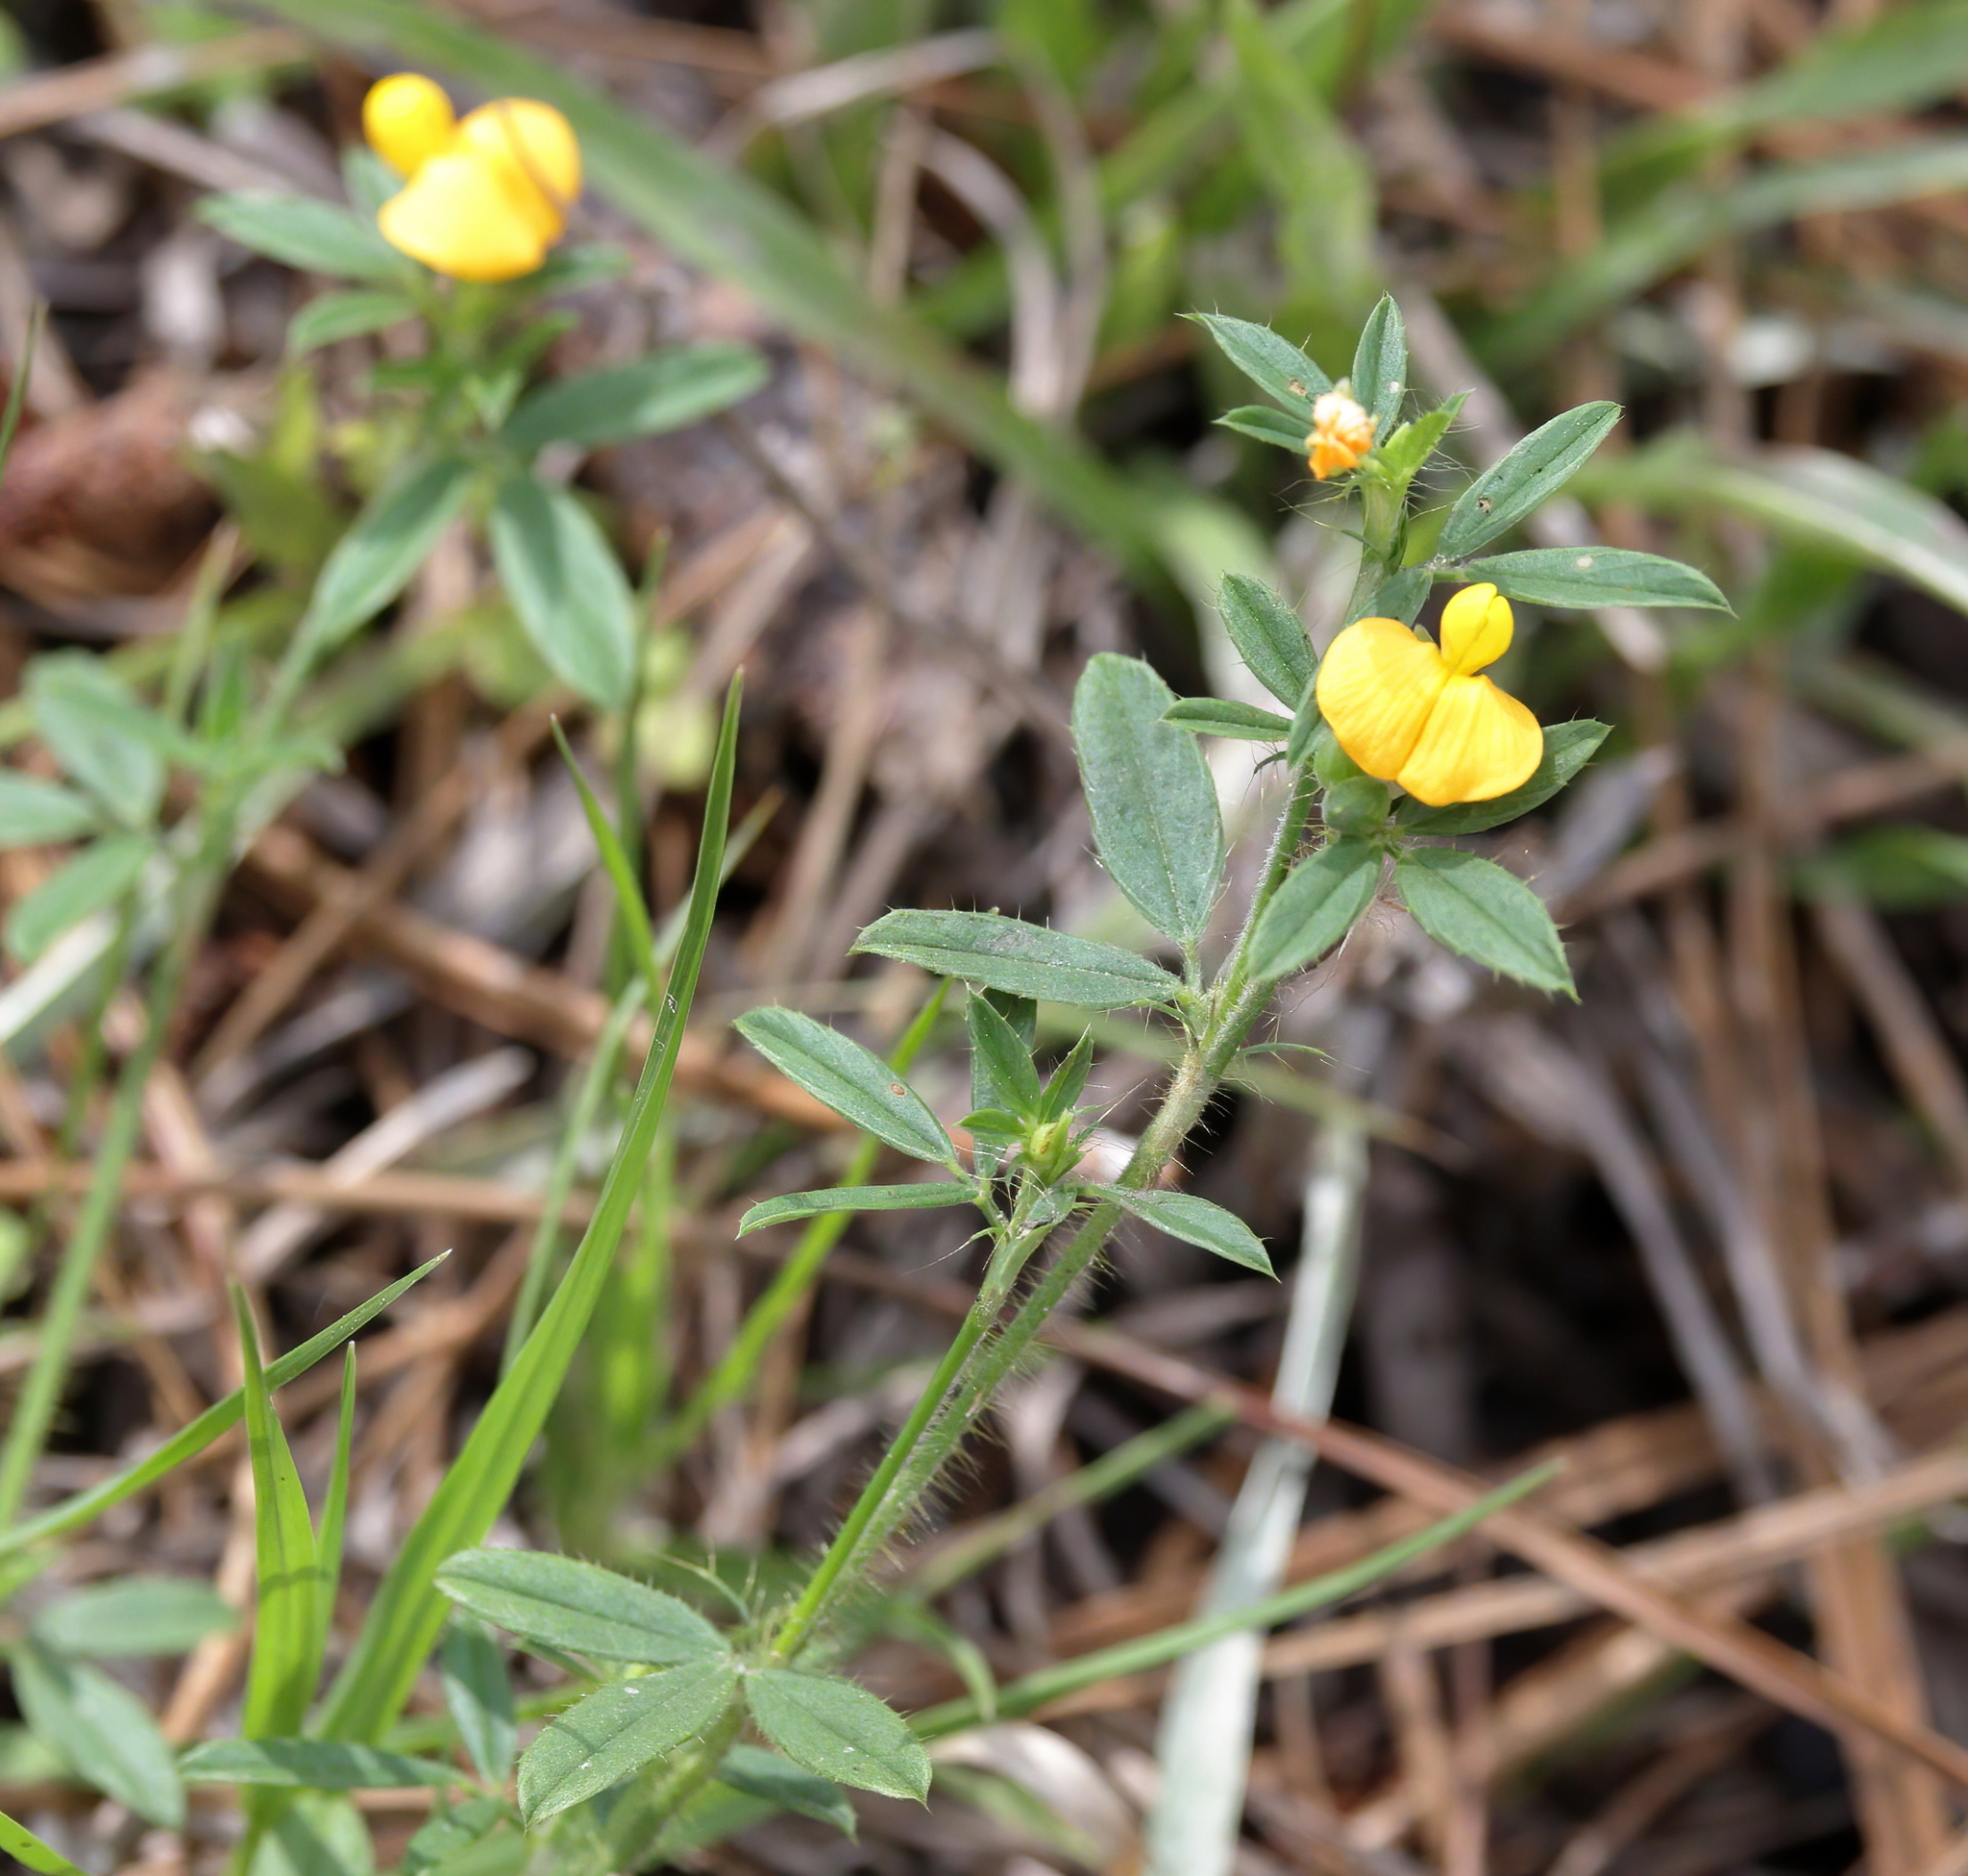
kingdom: Plantae
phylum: Tracheophyta
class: Magnoliopsida
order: Fabales
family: Fabaceae
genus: Stylosanthes
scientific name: Stylosanthes biflora
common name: Two-flower pencil-flower
